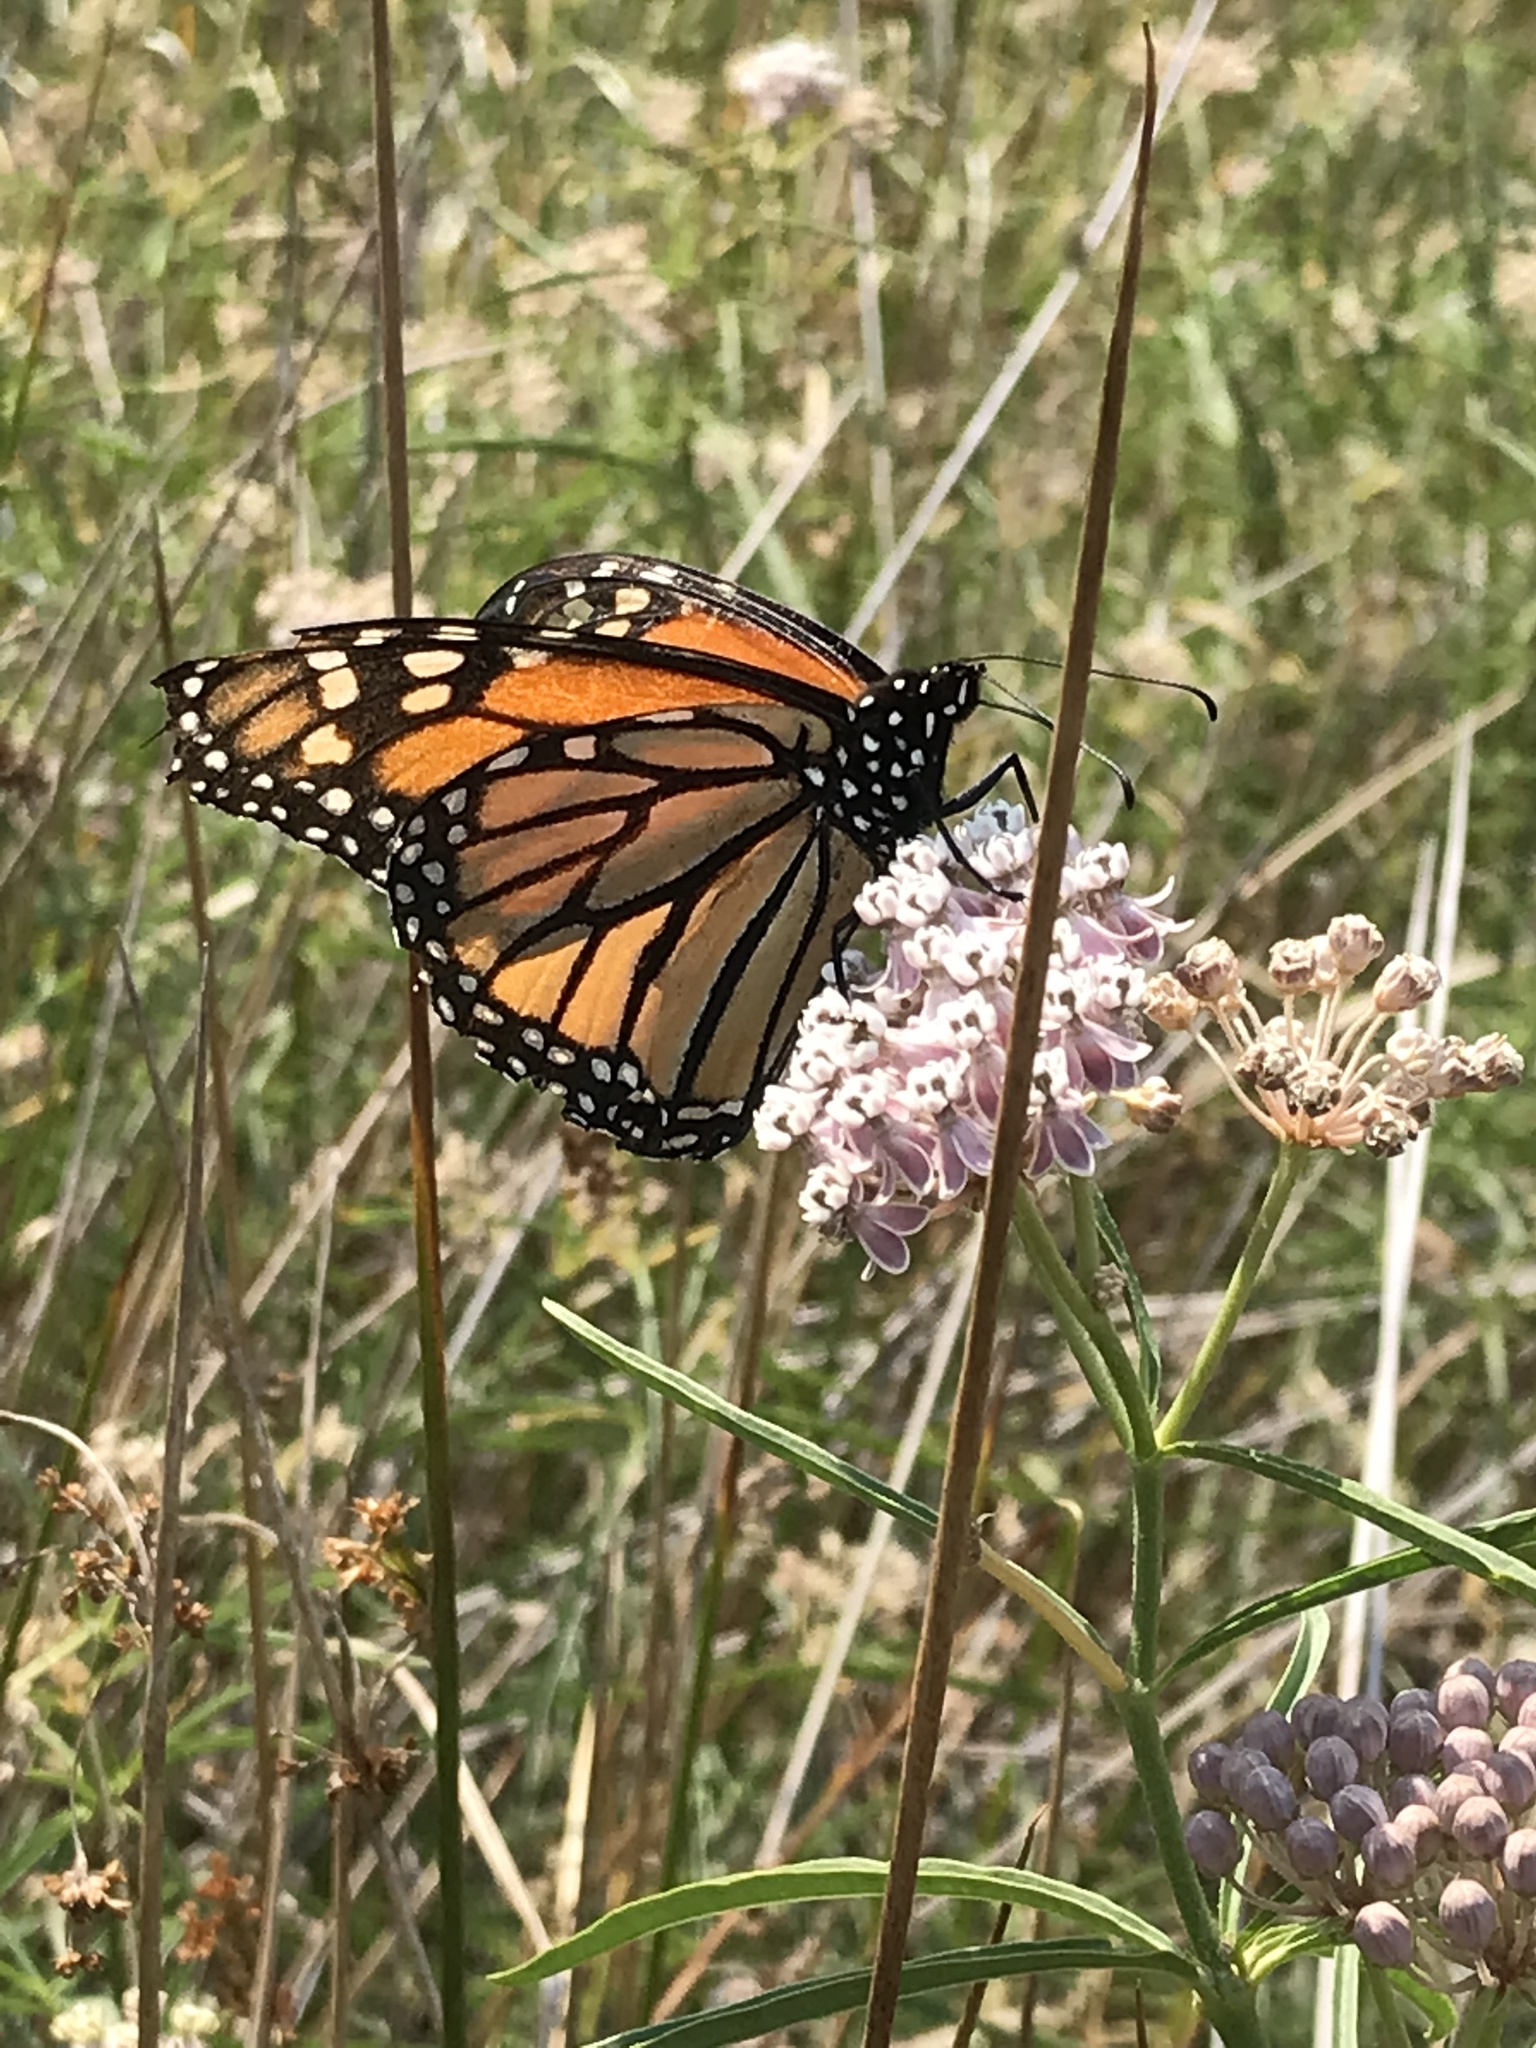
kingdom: Plantae
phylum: Tracheophyta
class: Magnoliopsida
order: Gentianales
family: Apocynaceae
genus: Asclepias
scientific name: Asclepias fascicularis
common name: Mexican milkweed
